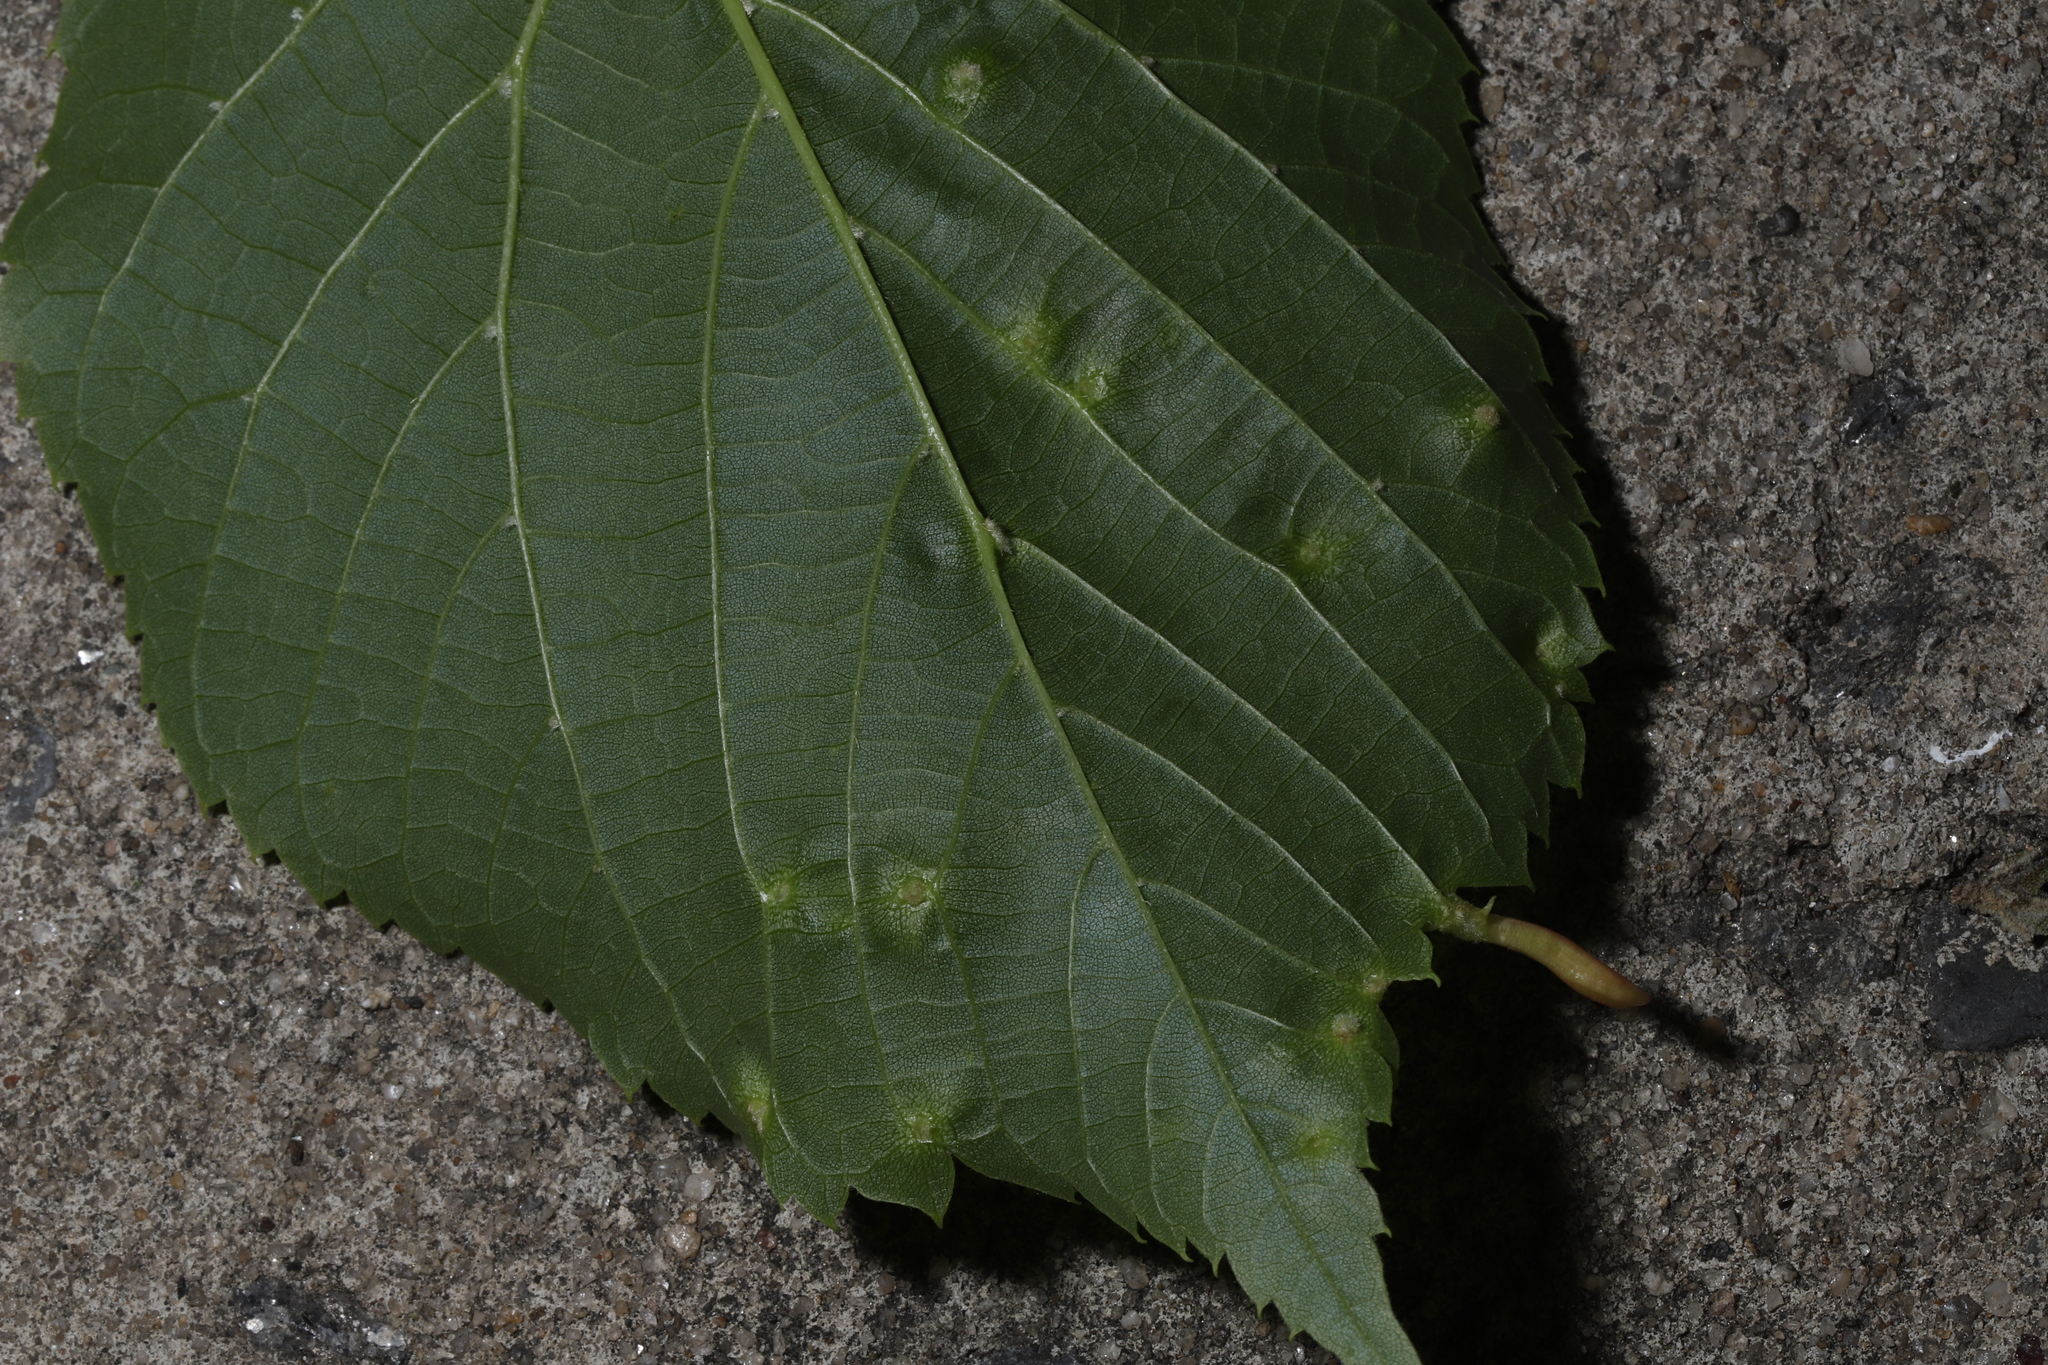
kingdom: Animalia
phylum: Arthropoda
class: Arachnida
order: Trombidiformes
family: Eriophyidae
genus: Eriophyes
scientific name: Eriophyes tiliae
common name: Red nail gall mite
